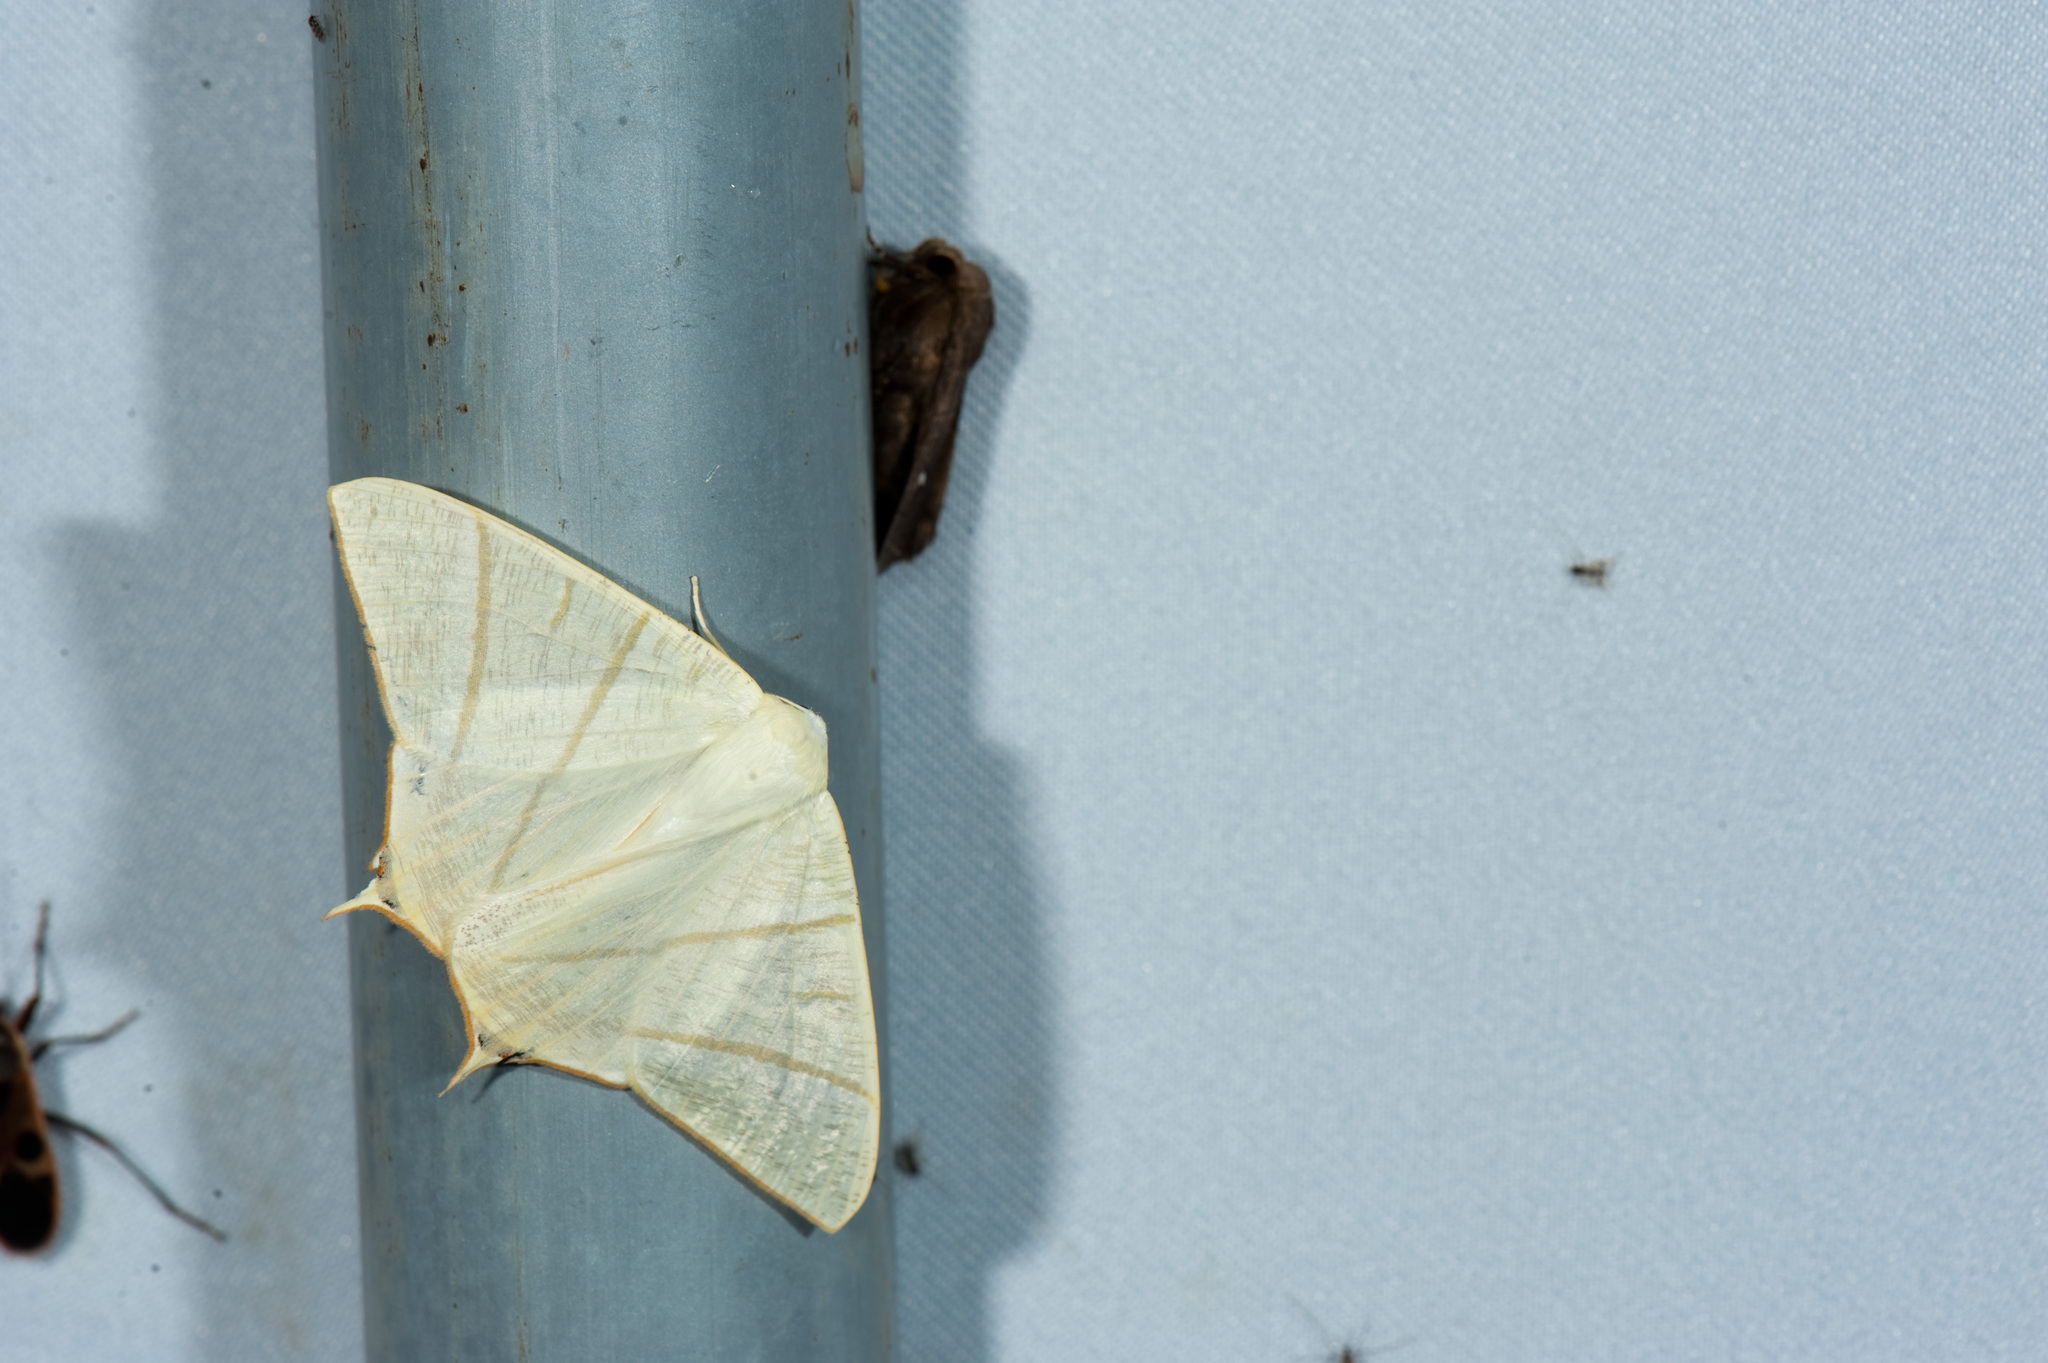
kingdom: Animalia
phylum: Arthropoda
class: Insecta
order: Lepidoptera
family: Geometridae
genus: Ourapteryx
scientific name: Ourapteryx pallidula
